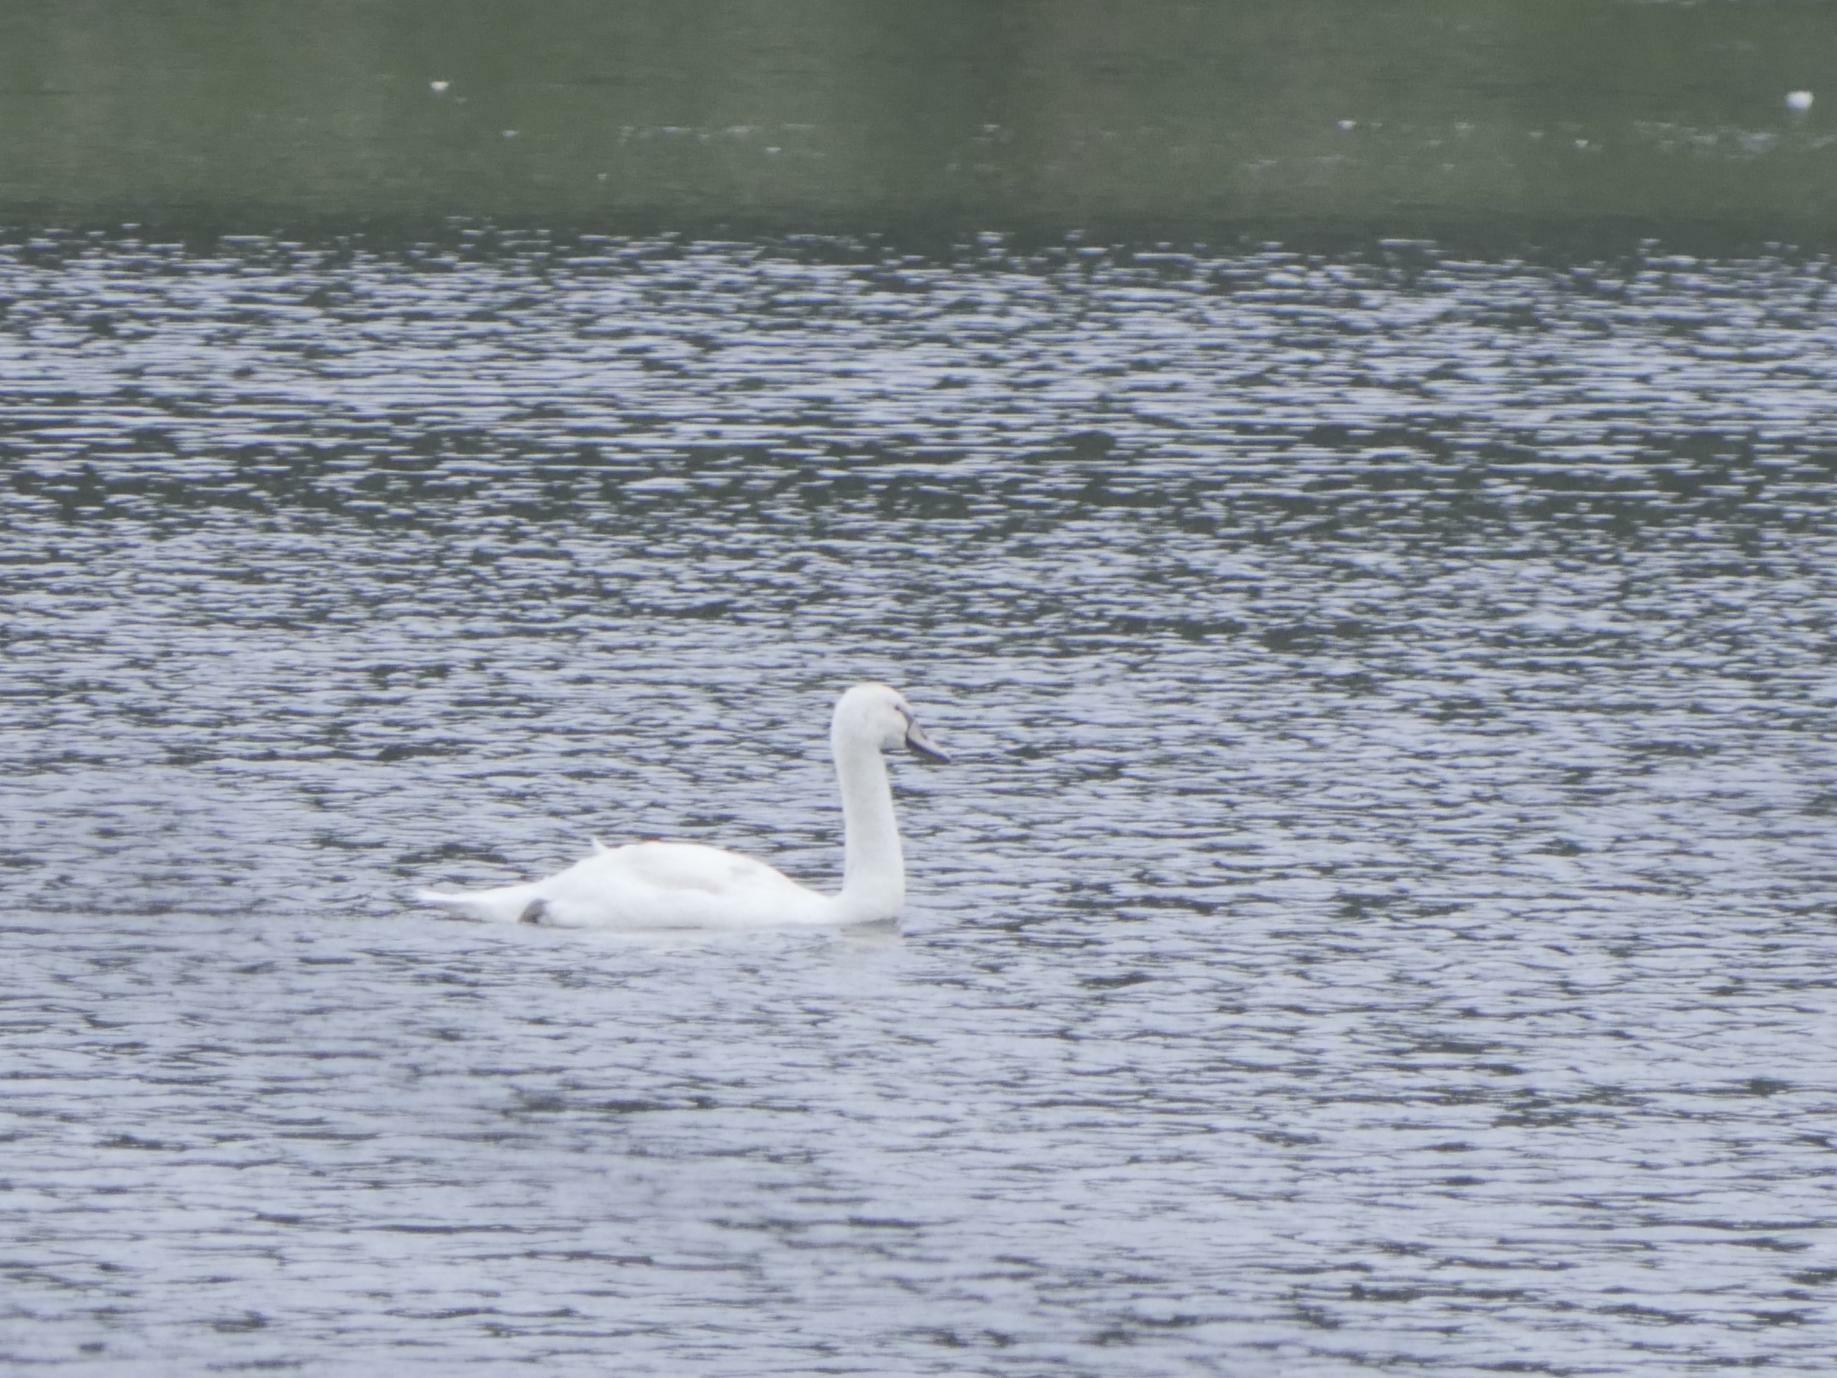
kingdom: Animalia
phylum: Chordata
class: Aves
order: Anseriformes
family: Anatidae
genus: Cygnus
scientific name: Cygnus olor
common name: Mute swan
